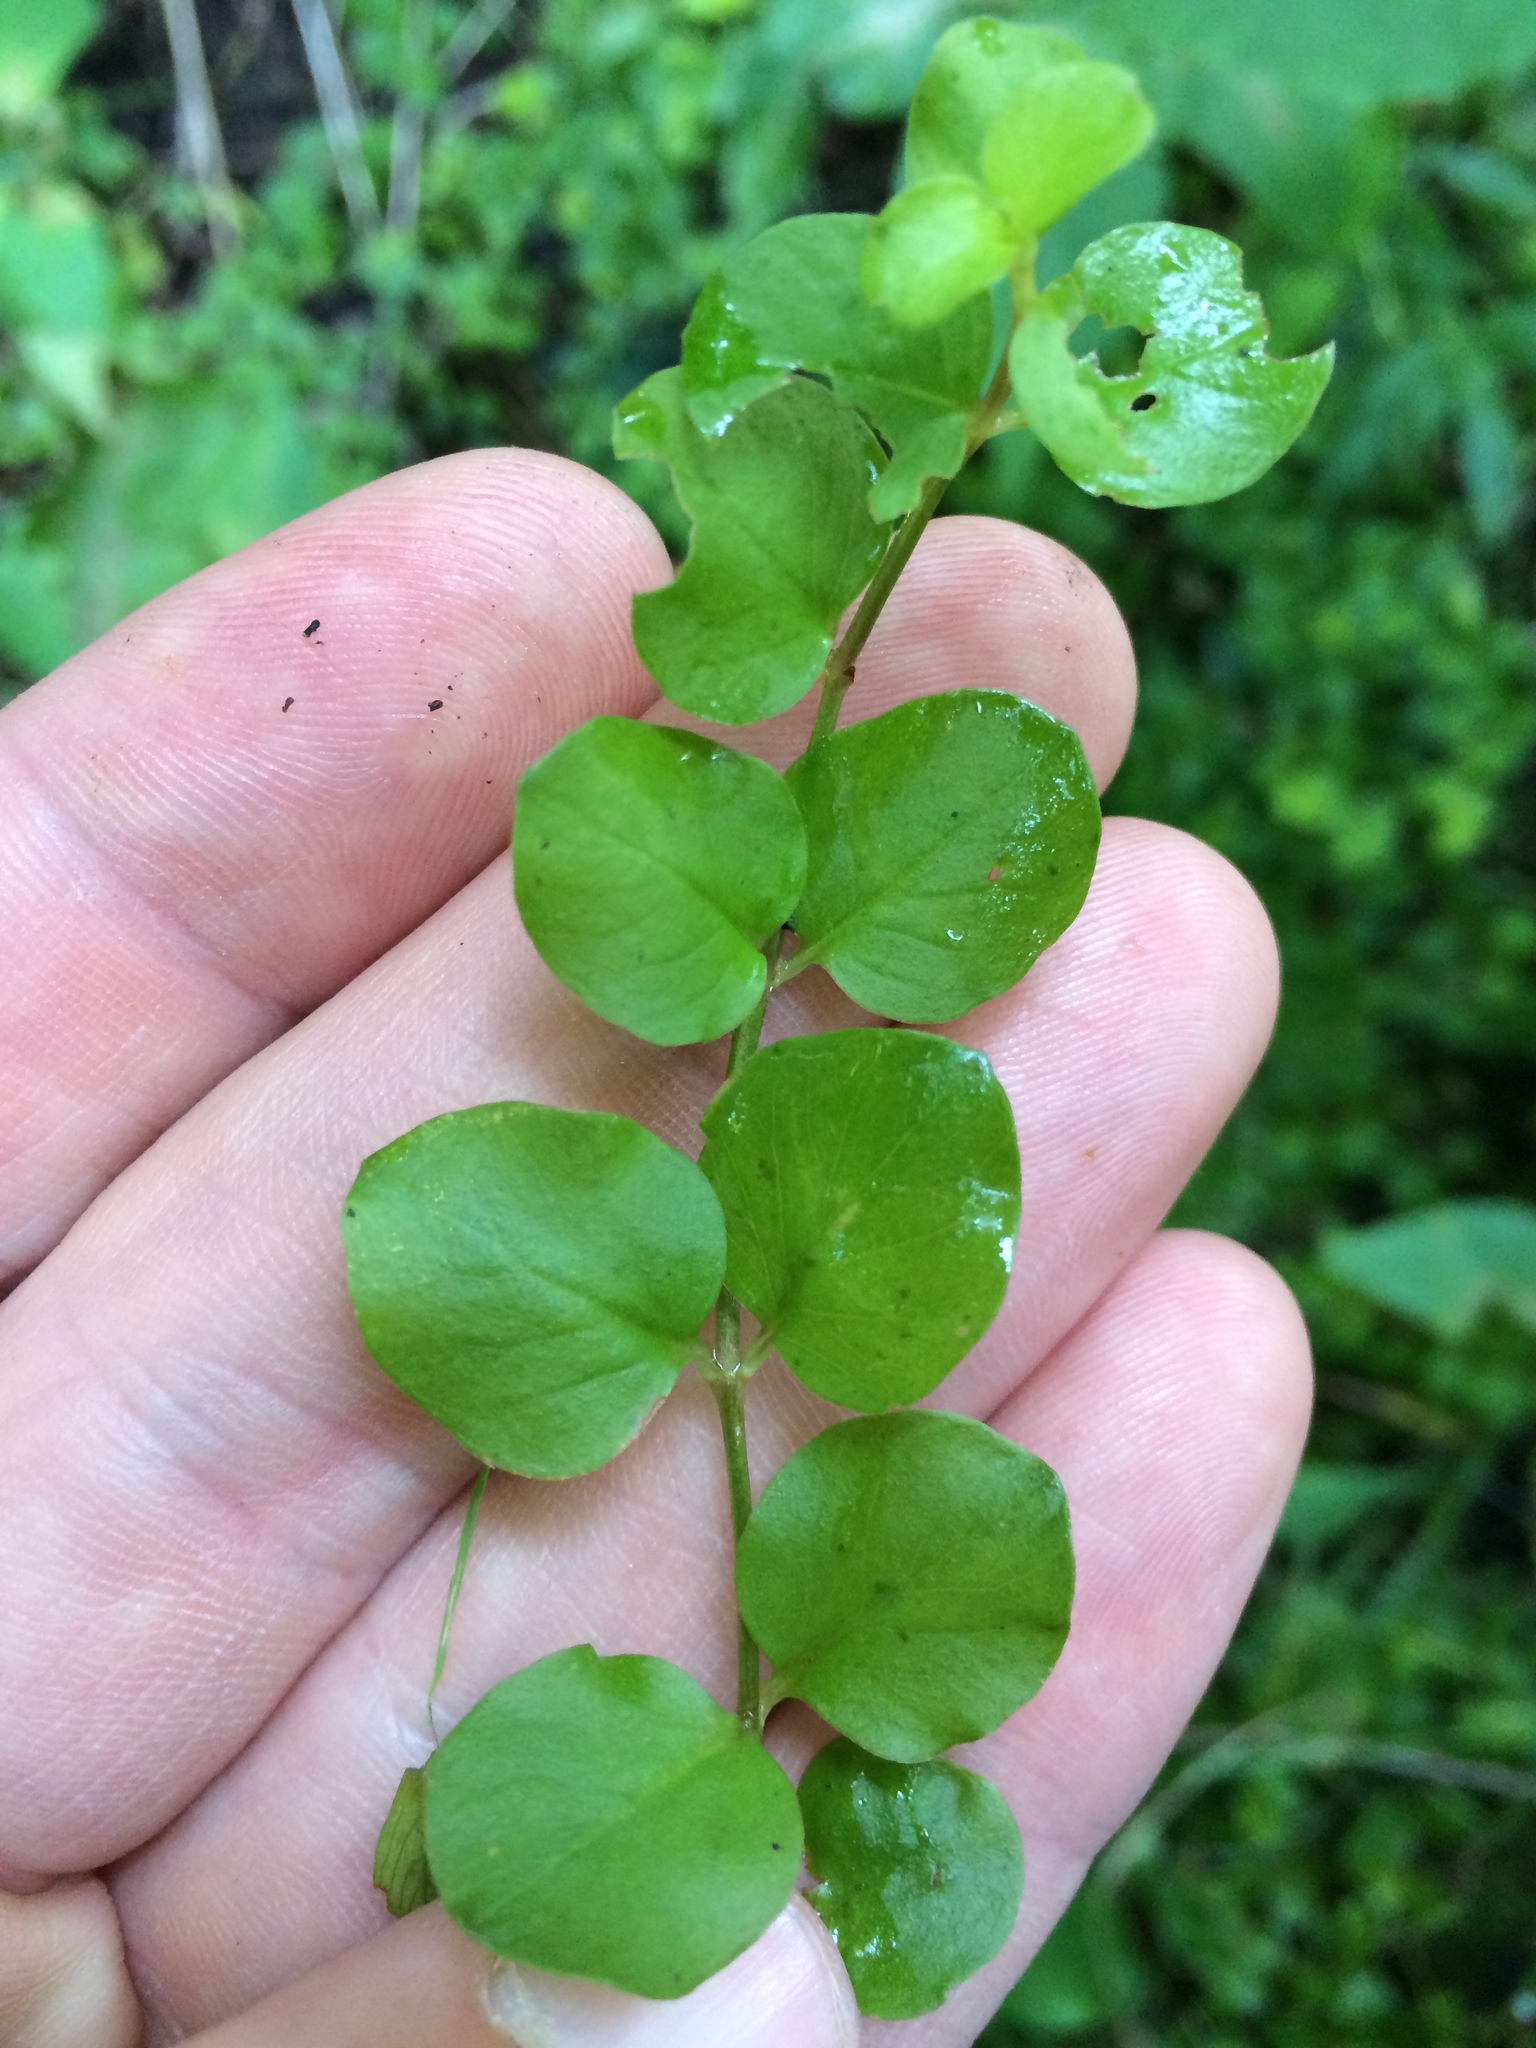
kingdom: Plantae
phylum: Tracheophyta
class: Magnoliopsida
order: Ericales
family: Primulaceae
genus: Lysimachia
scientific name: Lysimachia nummularia
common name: Moneywort
